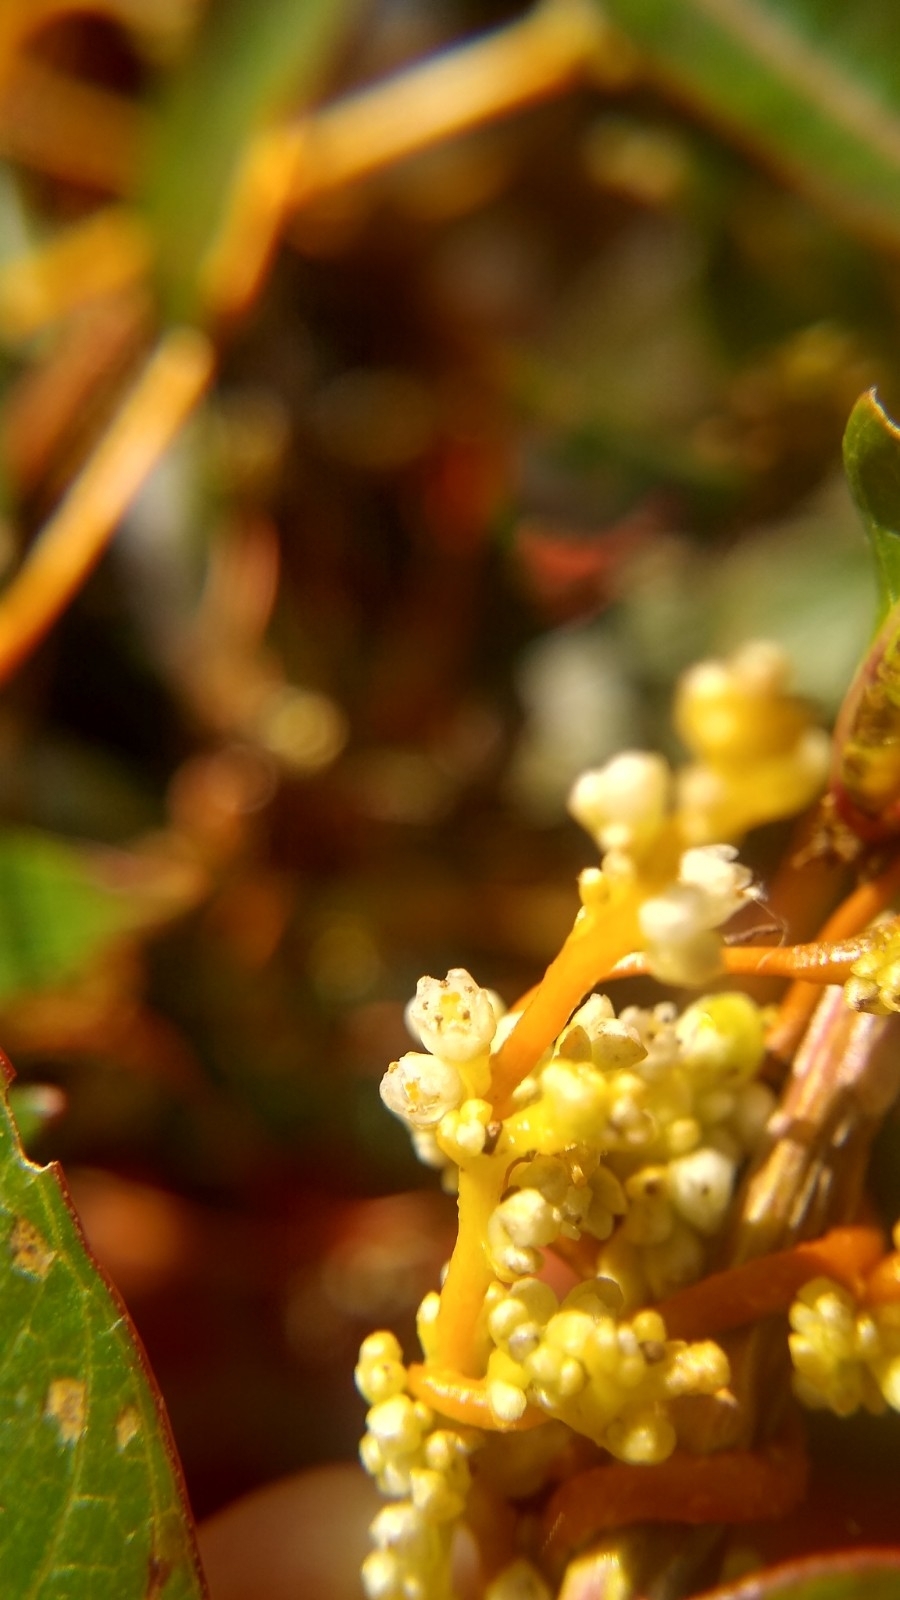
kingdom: Plantae
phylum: Tracheophyta
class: Magnoliopsida
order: Solanales
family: Convolvulaceae
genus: Cuscuta
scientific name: Cuscuta gronovii
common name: Common dodder
